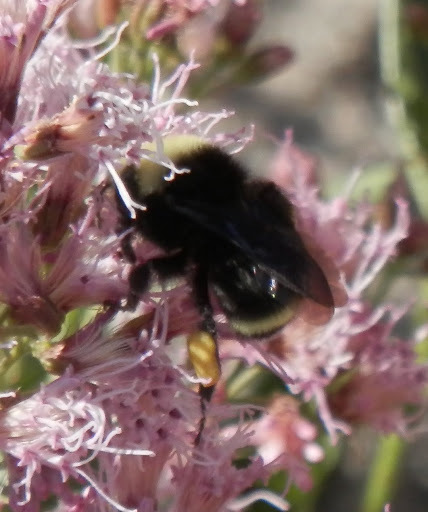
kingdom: Animalia
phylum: Arthropoda
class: Insecta
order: Hymenoptera
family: Apidae
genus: Bombus
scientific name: Bombus vosnesenskii
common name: Vosnesensky bumble bee
